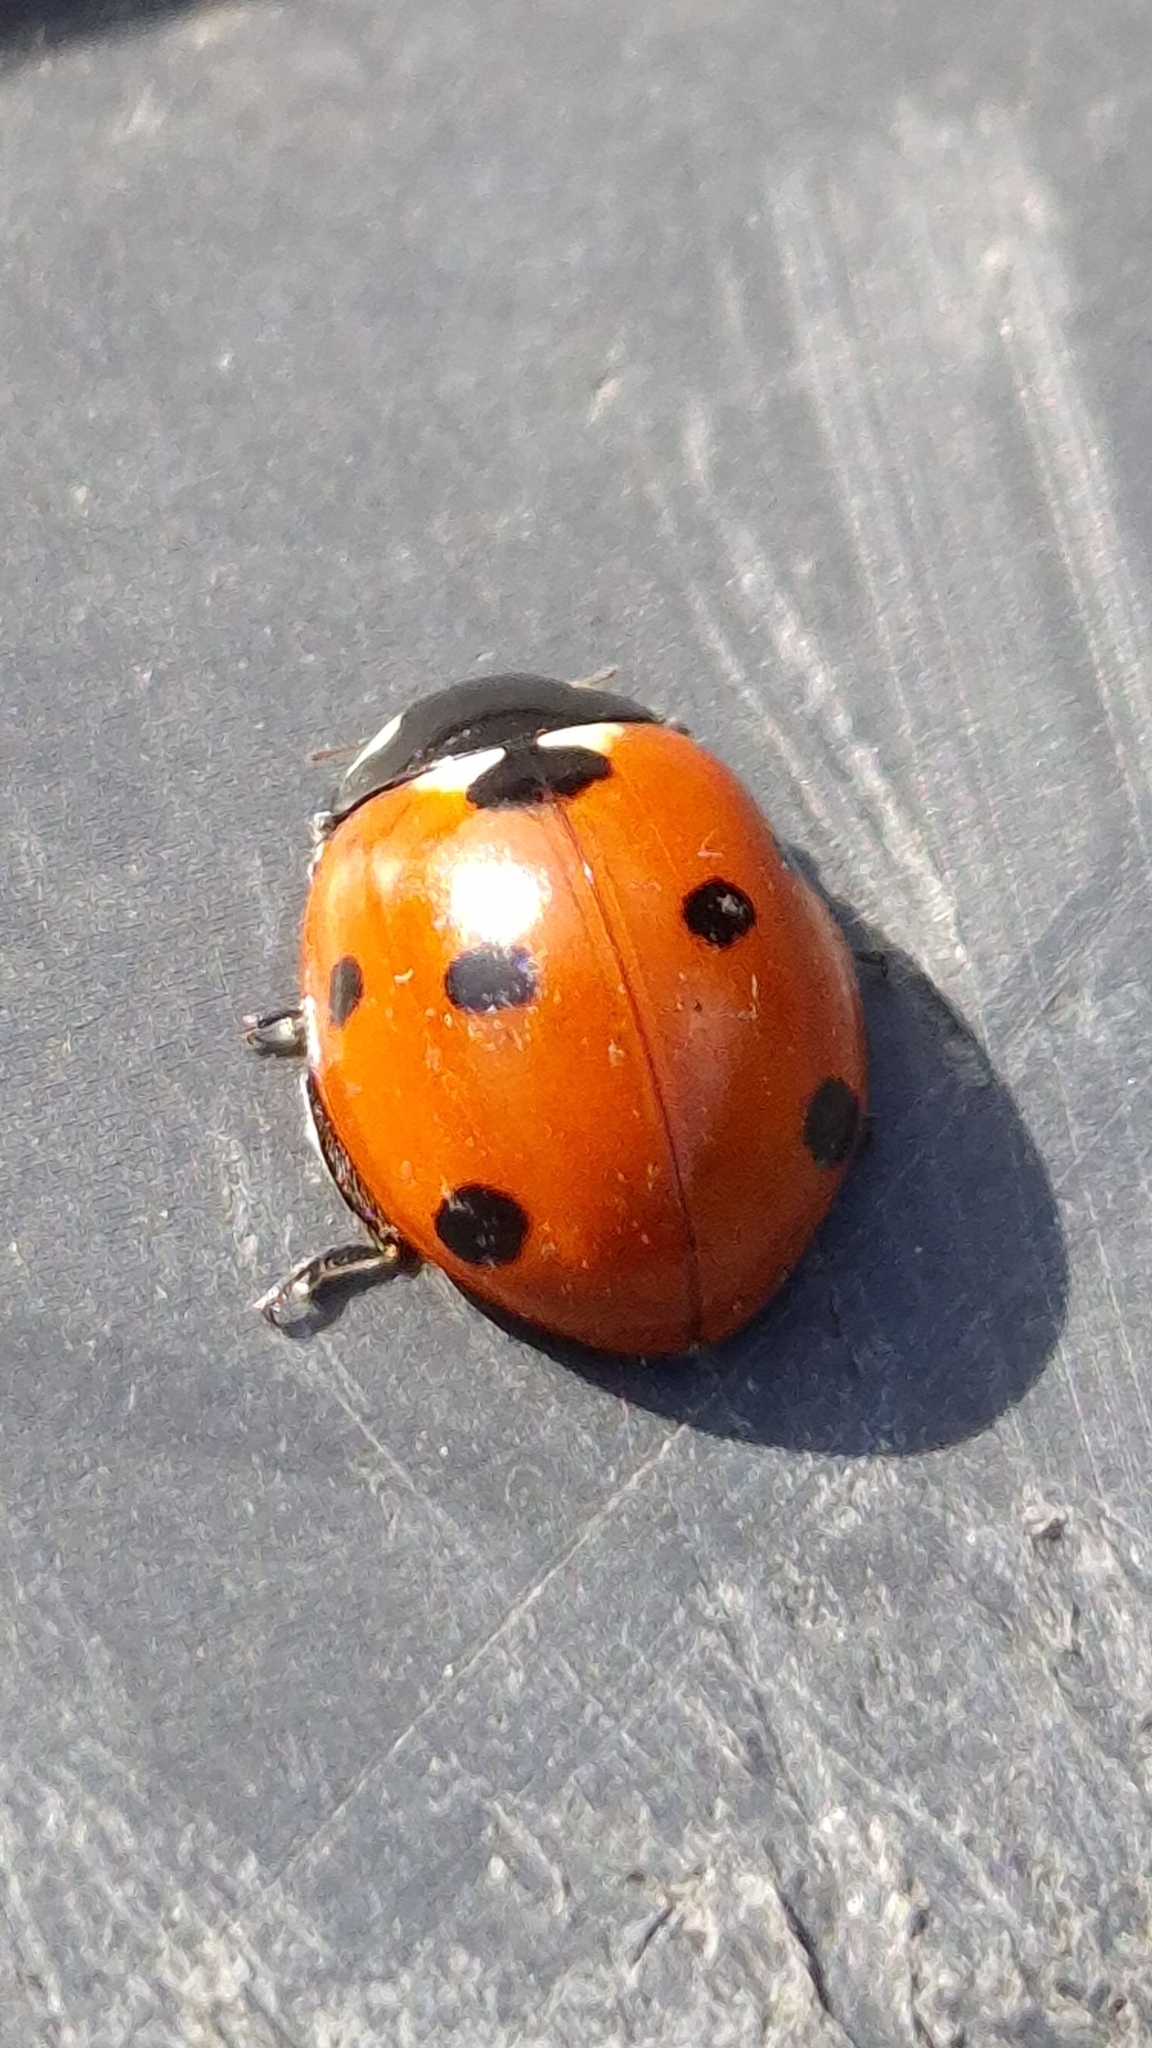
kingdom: Animalia
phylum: Arthropoda
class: Insecta
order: Coleoptera
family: Coccinellidae
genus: Coccinella
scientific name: Coccinella septempunctata
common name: Sevenspotted lady beetle
